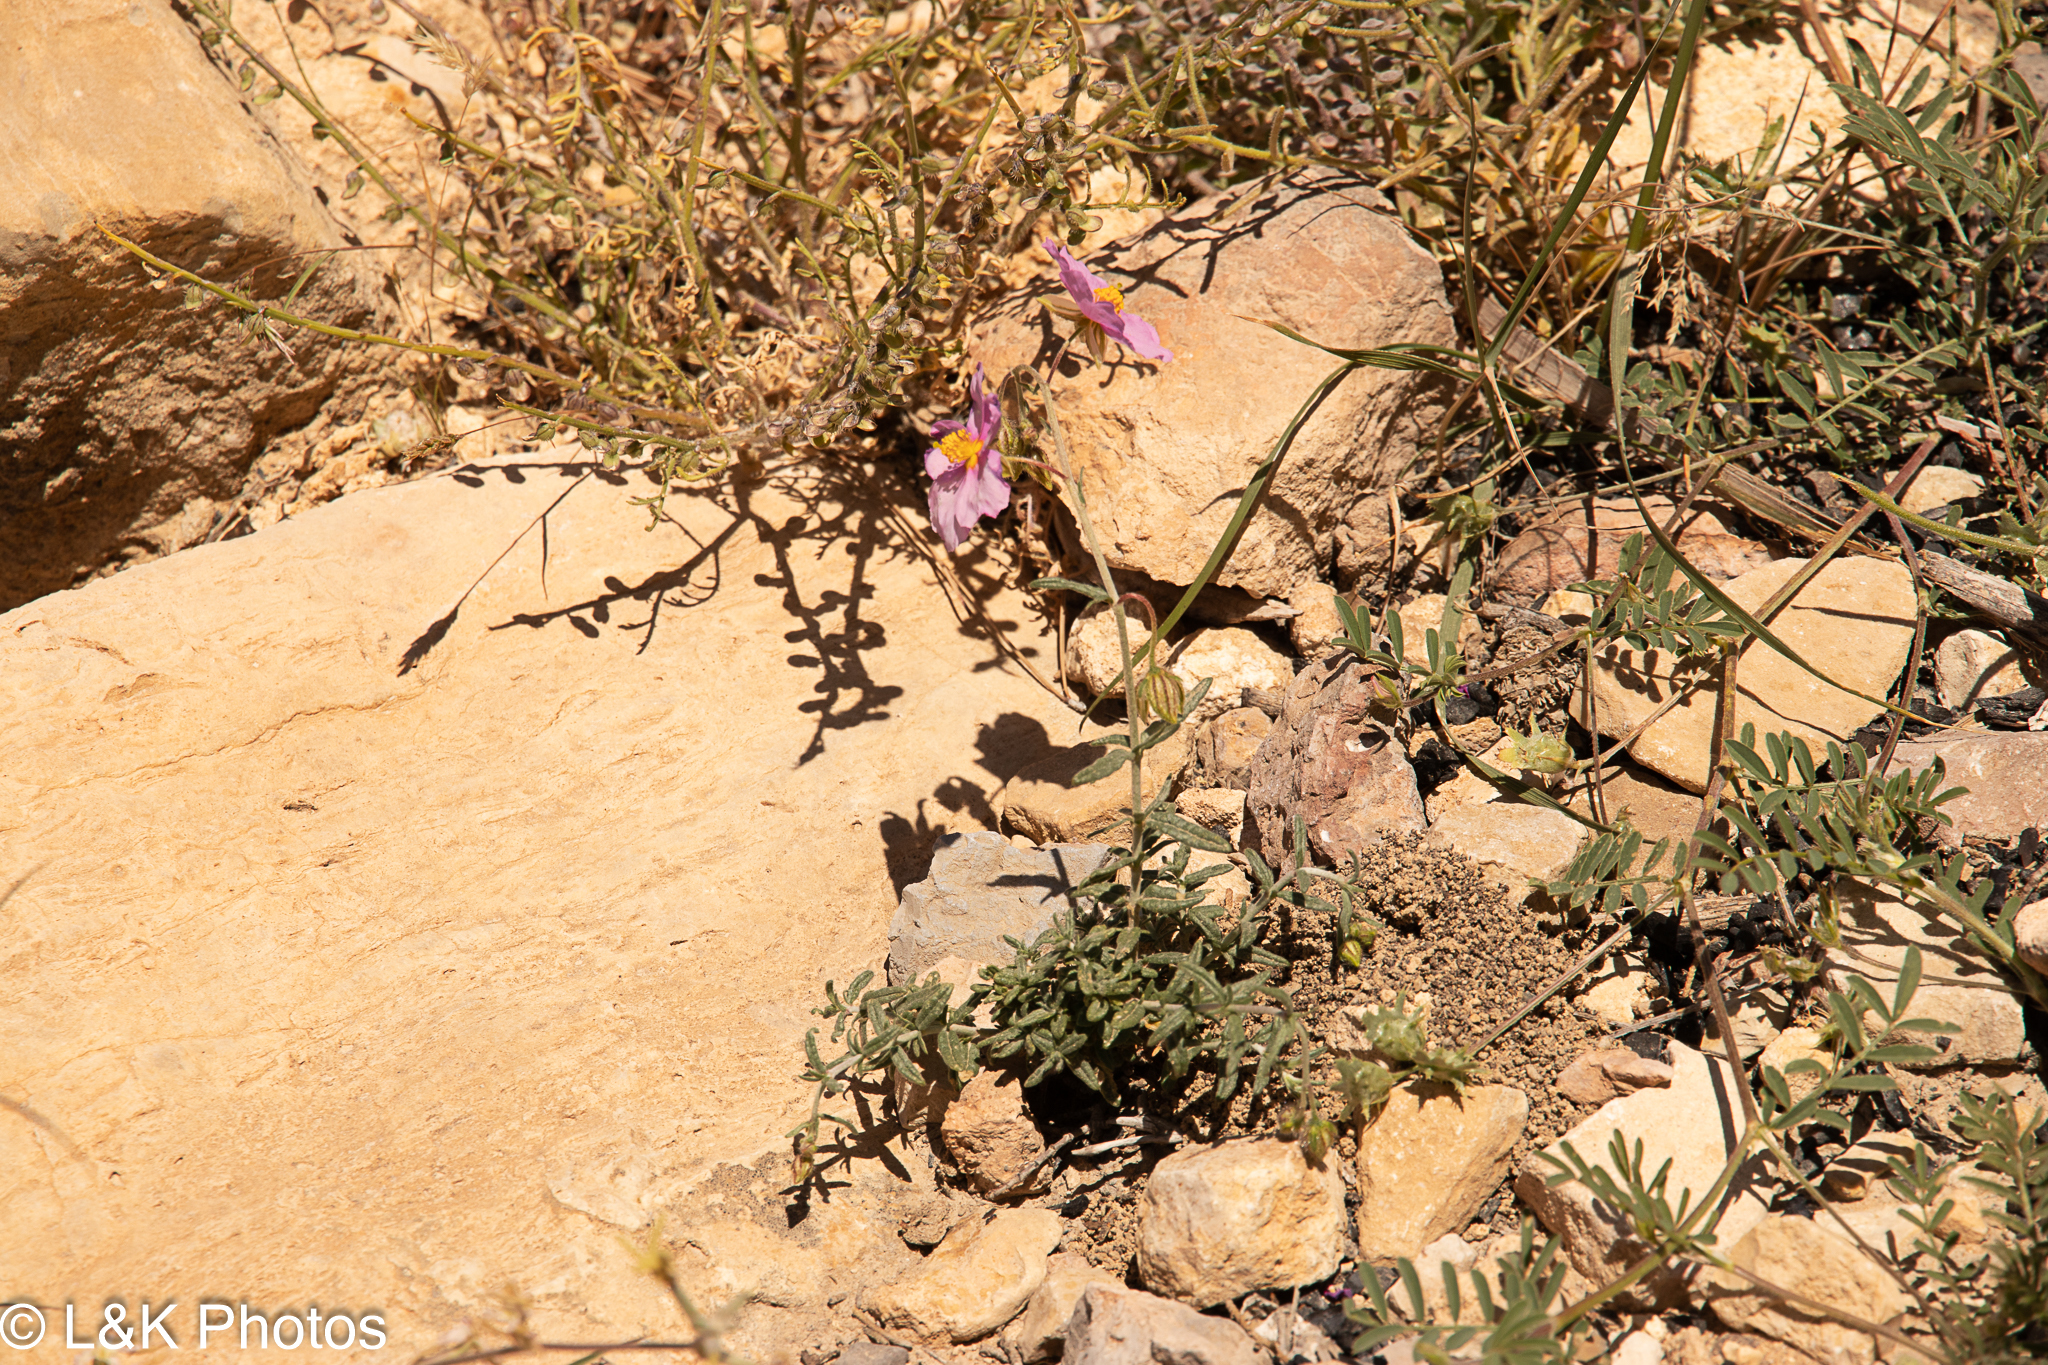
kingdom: Plantae
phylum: Tracheophyta
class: Magnoliopsida
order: Malvales
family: Cistaceae
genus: Helianthemum
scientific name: Helianthemum vesicarium
